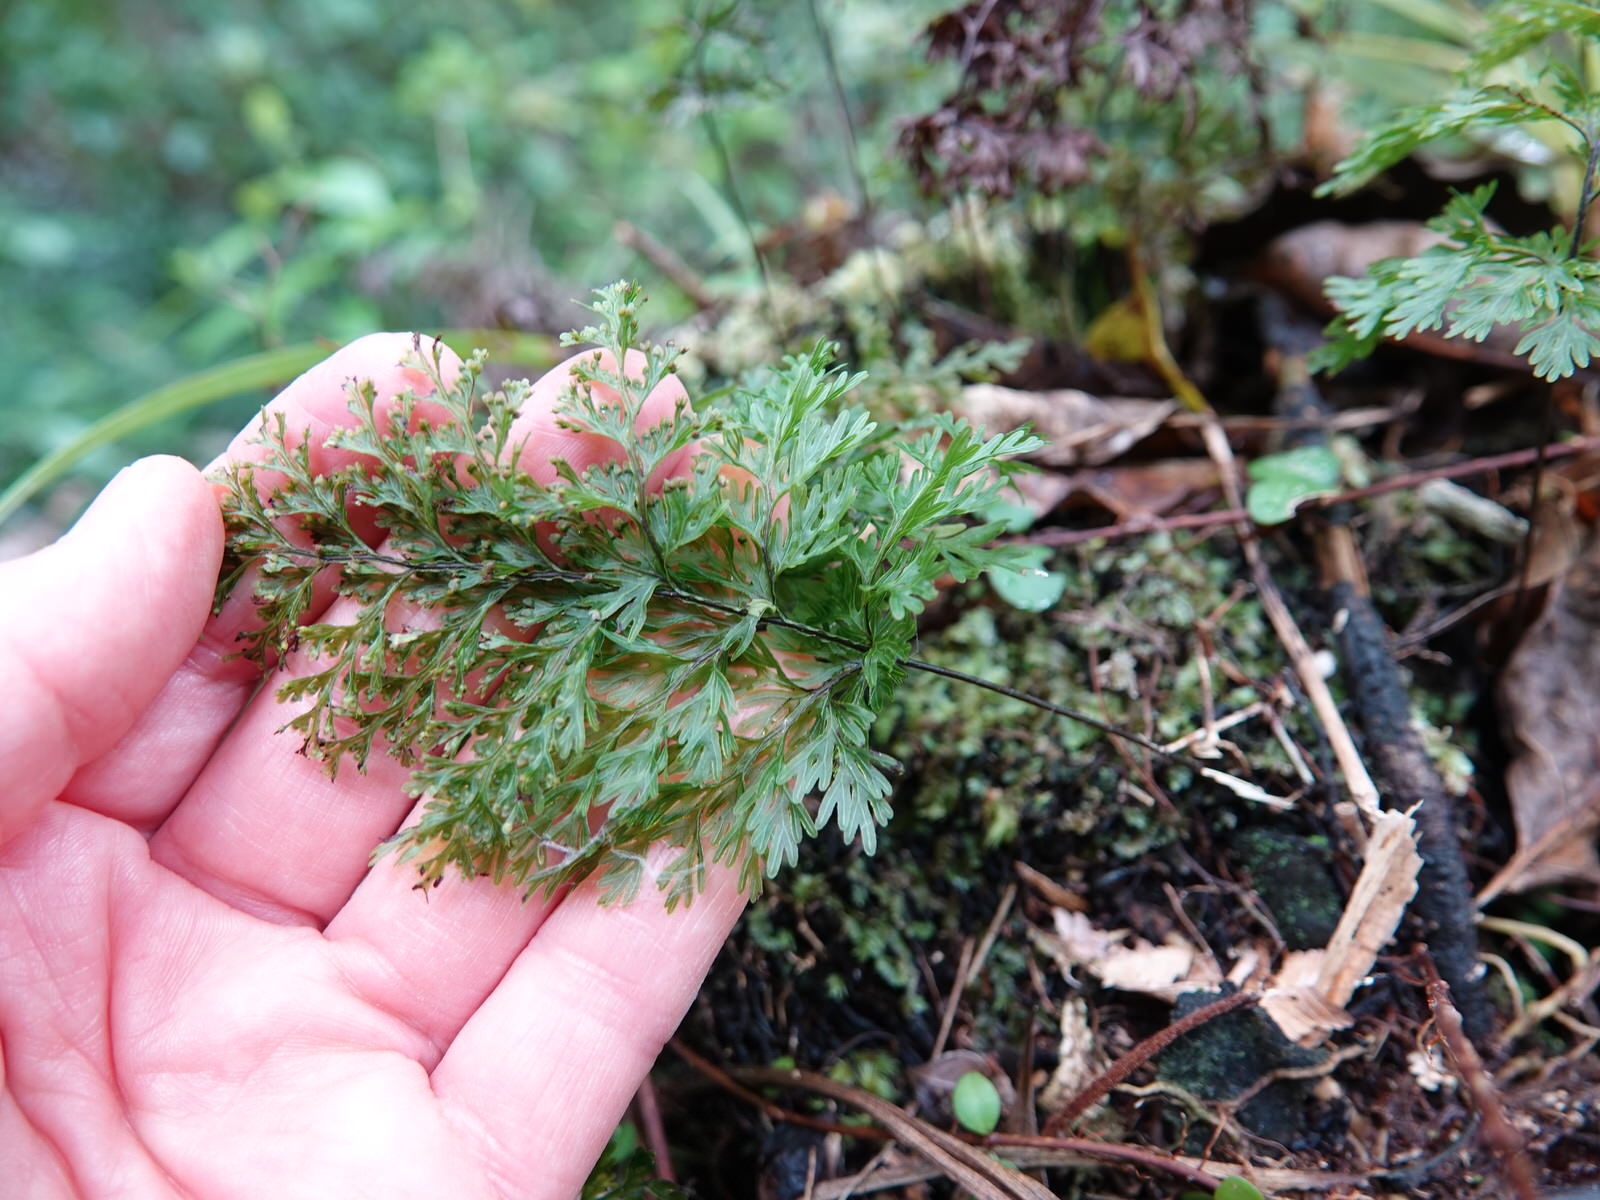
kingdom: Plantae
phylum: Tracheophyta
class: Polypodiopsida
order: Hymenophyllales
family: Hymenophyllaceae
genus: Hymenophyllum
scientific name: Hymenophyllum demissum
